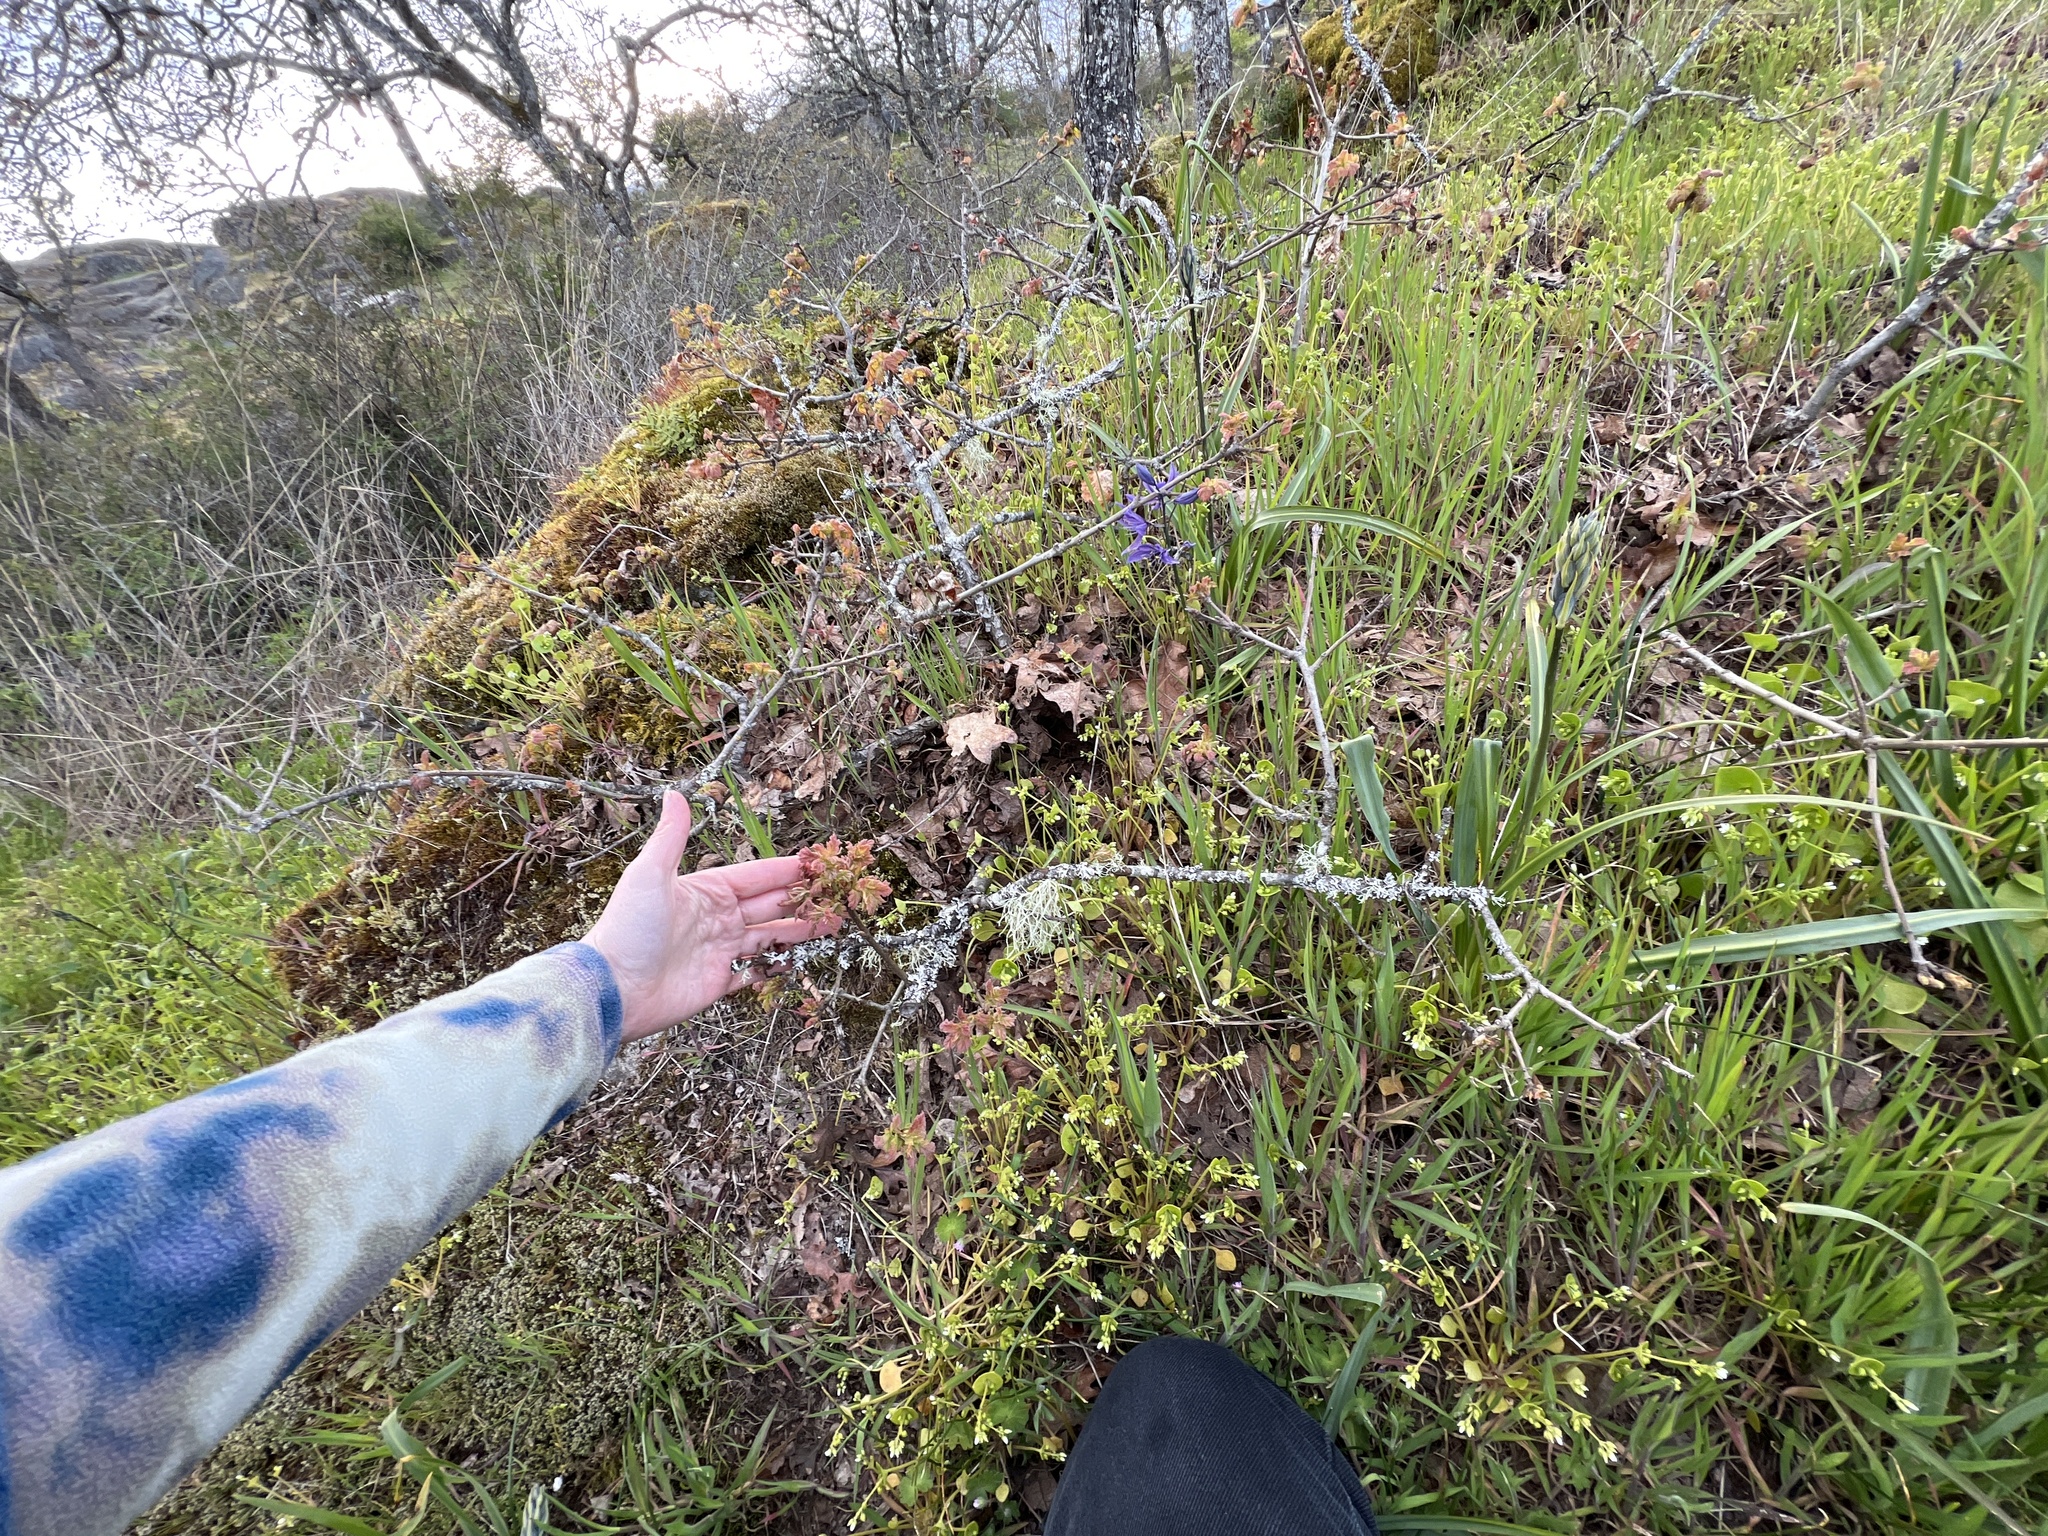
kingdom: Plantae
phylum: Tracheophyta
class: Magnoliopsida
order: Fagales
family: Fagaceae
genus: Quercus
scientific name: Quercus garryana
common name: Garry oak
